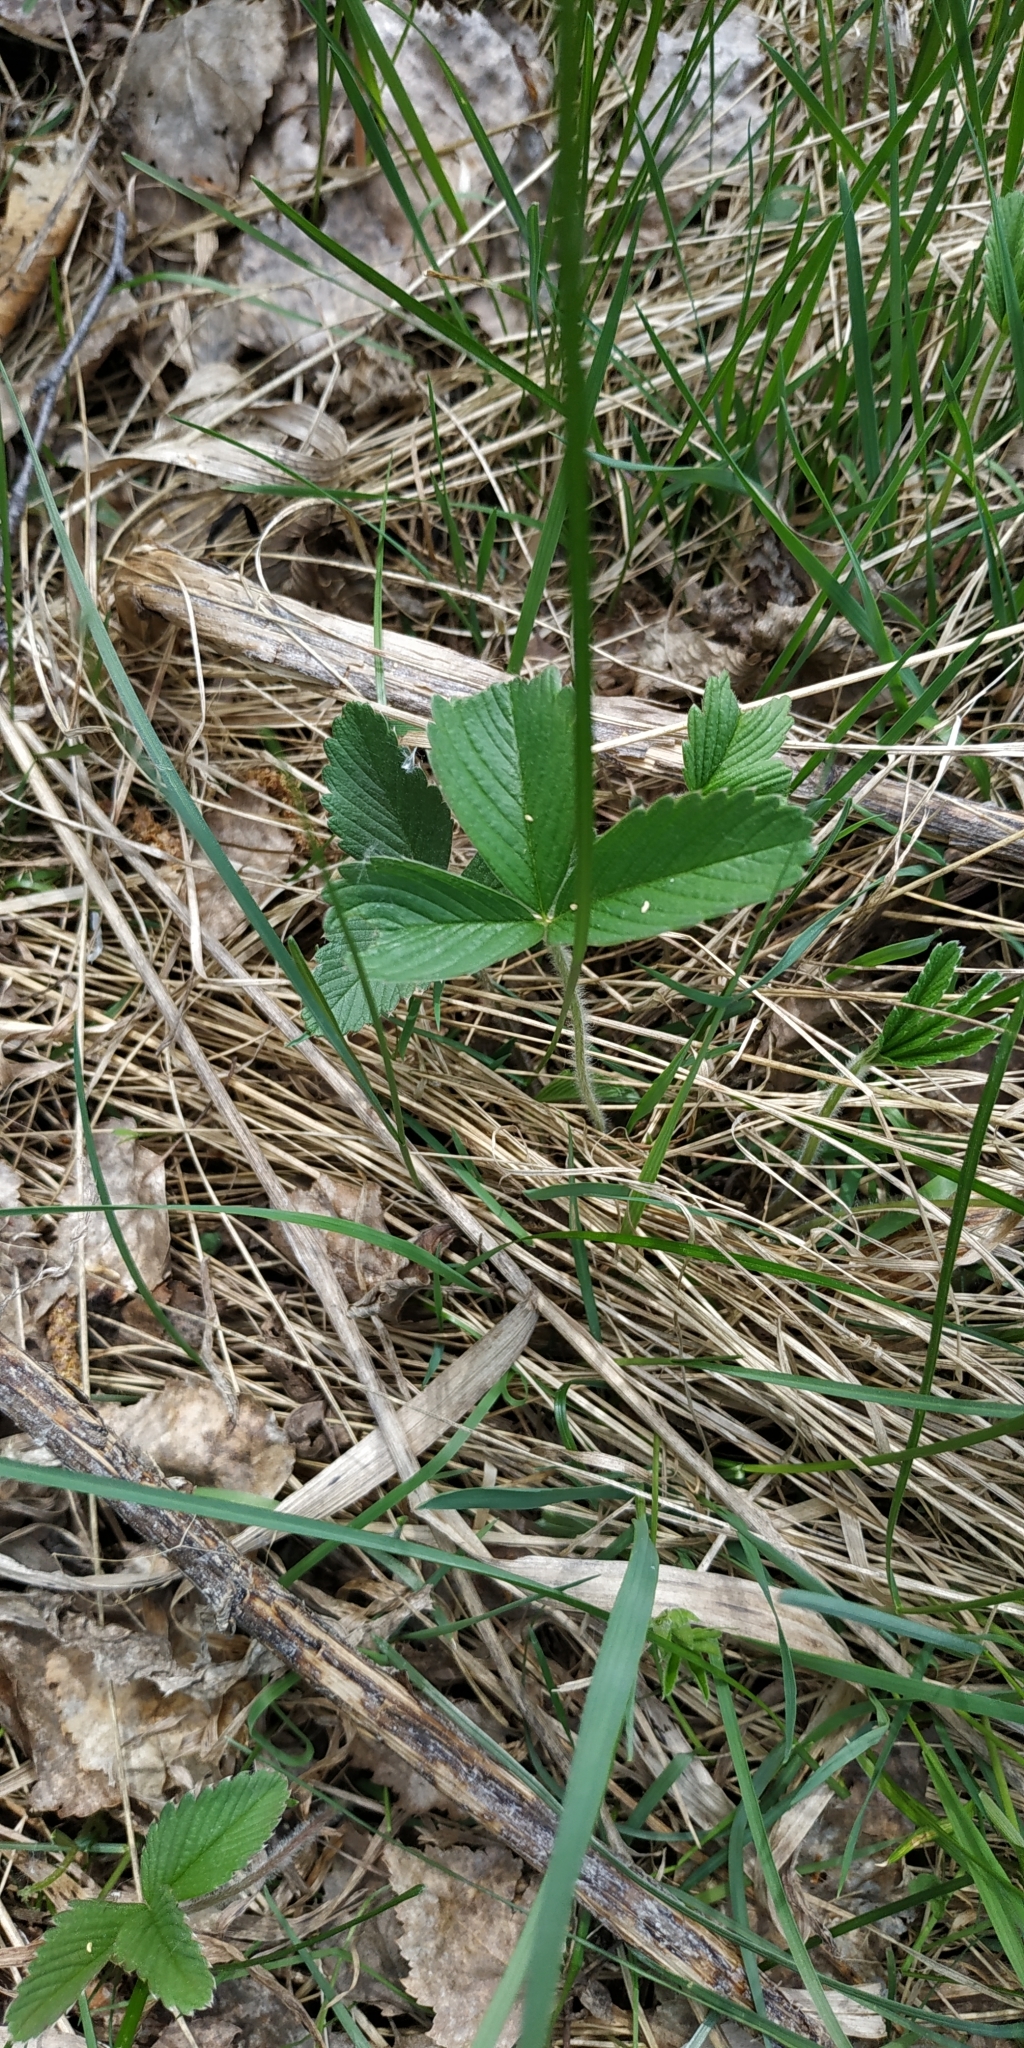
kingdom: Plantae
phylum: Tracheophyta
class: Magnoliopsida
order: Rosales
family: Rosaceae
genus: Fragaria
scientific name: Fragaria viridis
